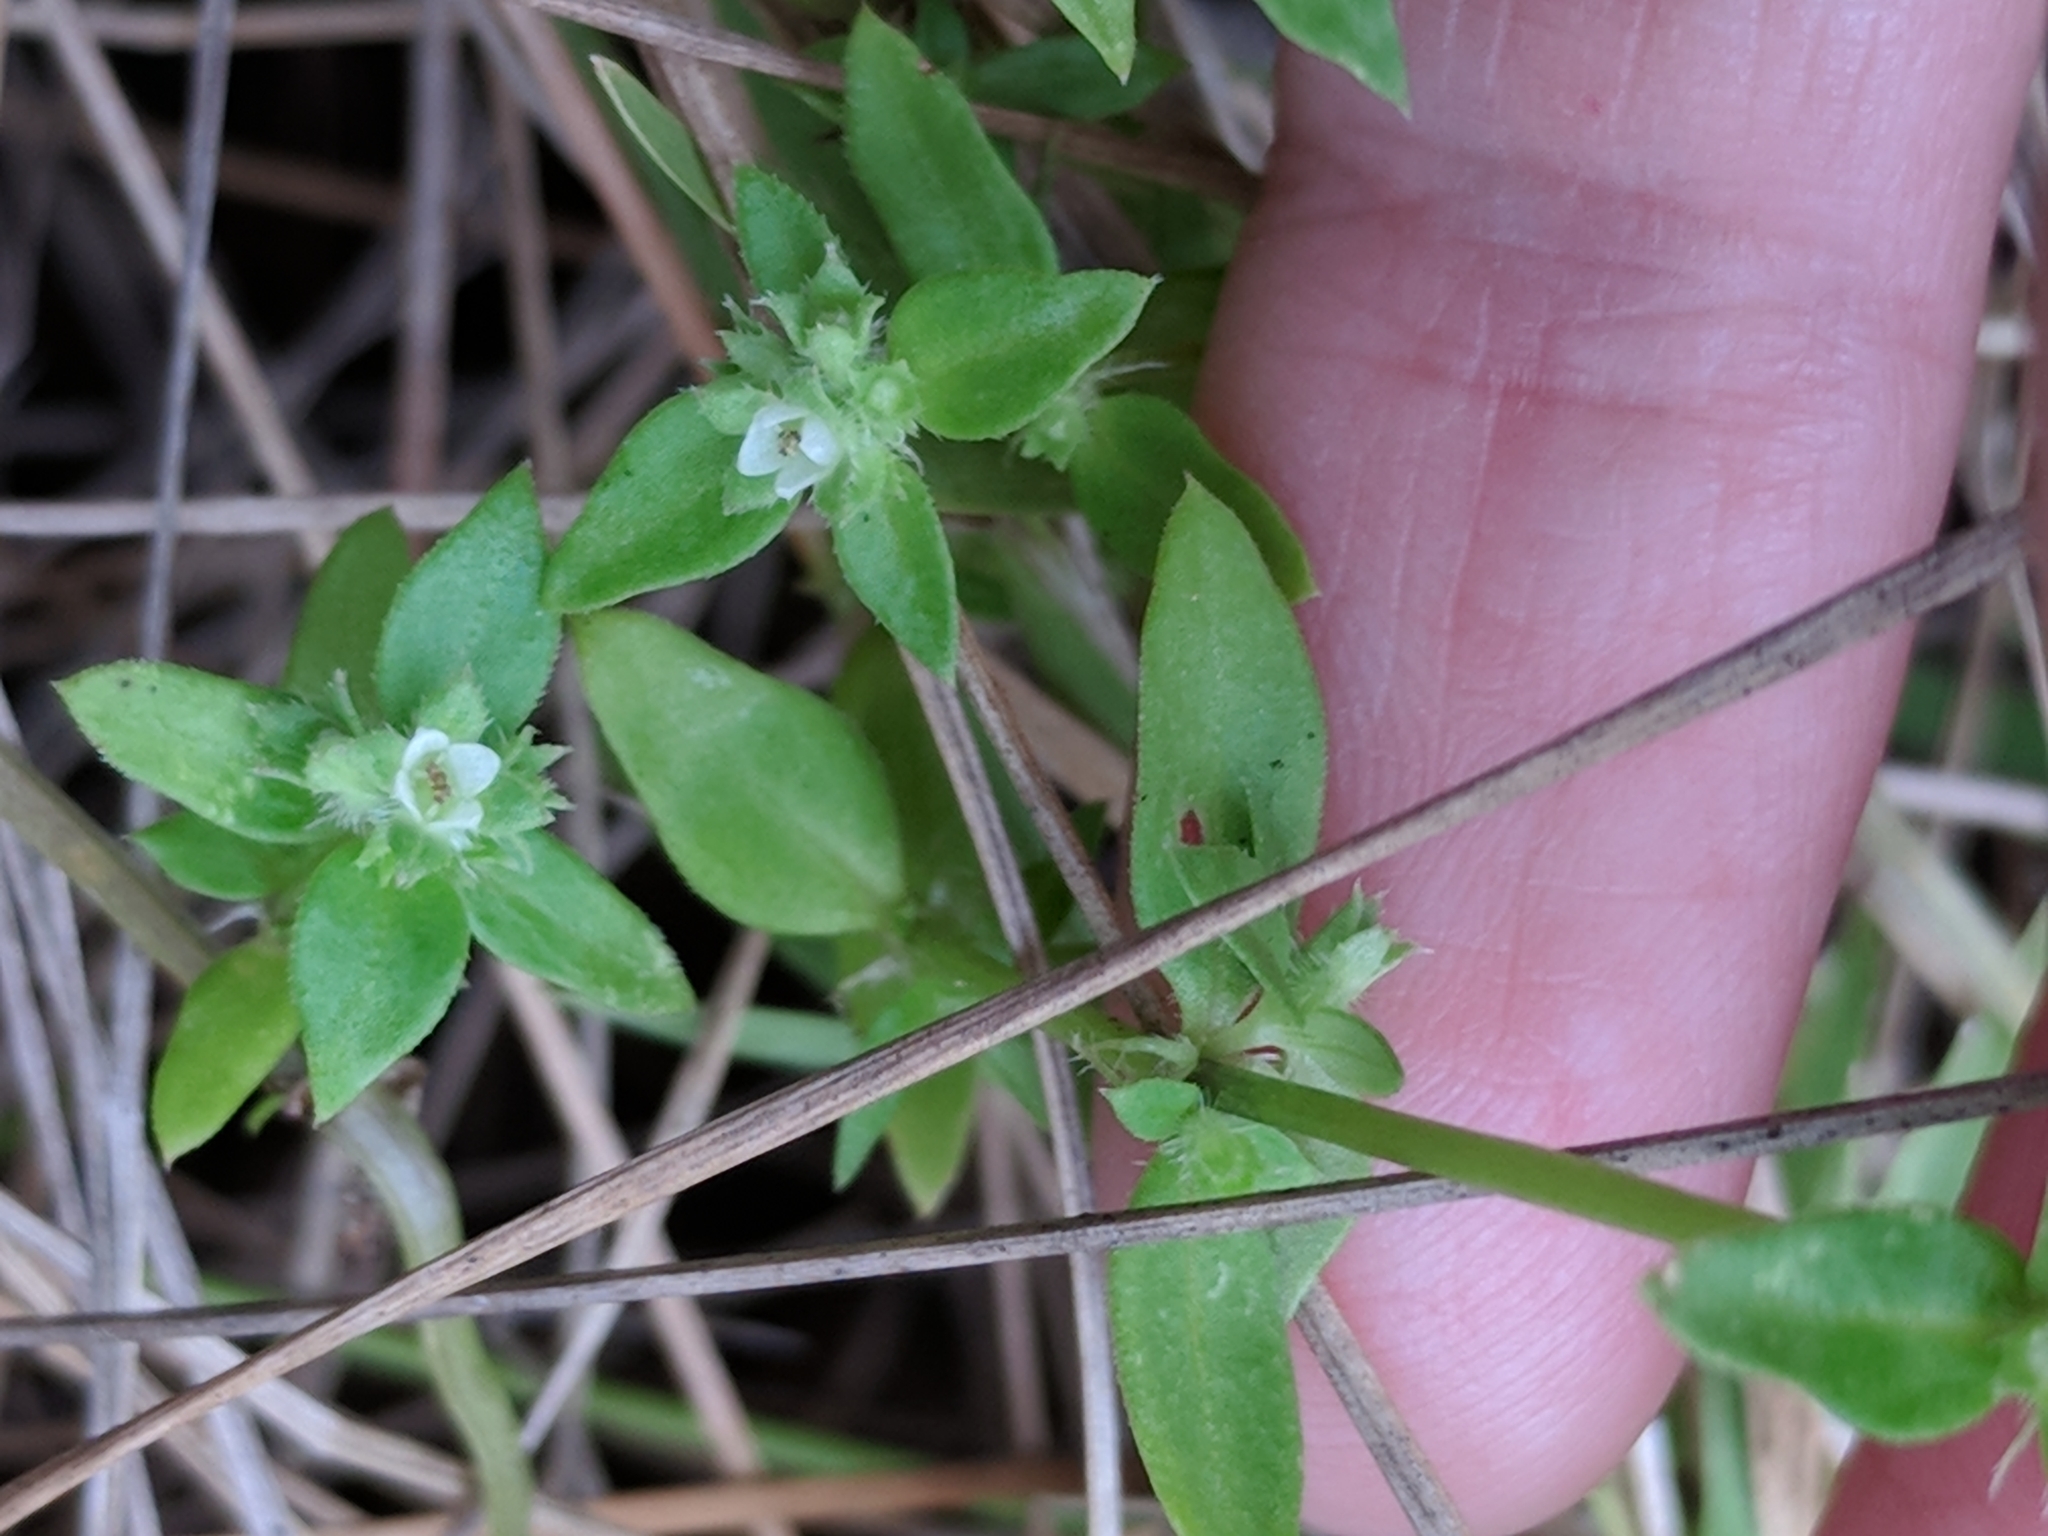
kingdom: Plantae
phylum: Tracheophyta
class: Magnoliopsida
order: Gentianales
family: Rubiaceae
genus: Edrastima
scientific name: Edrastima uniflora
